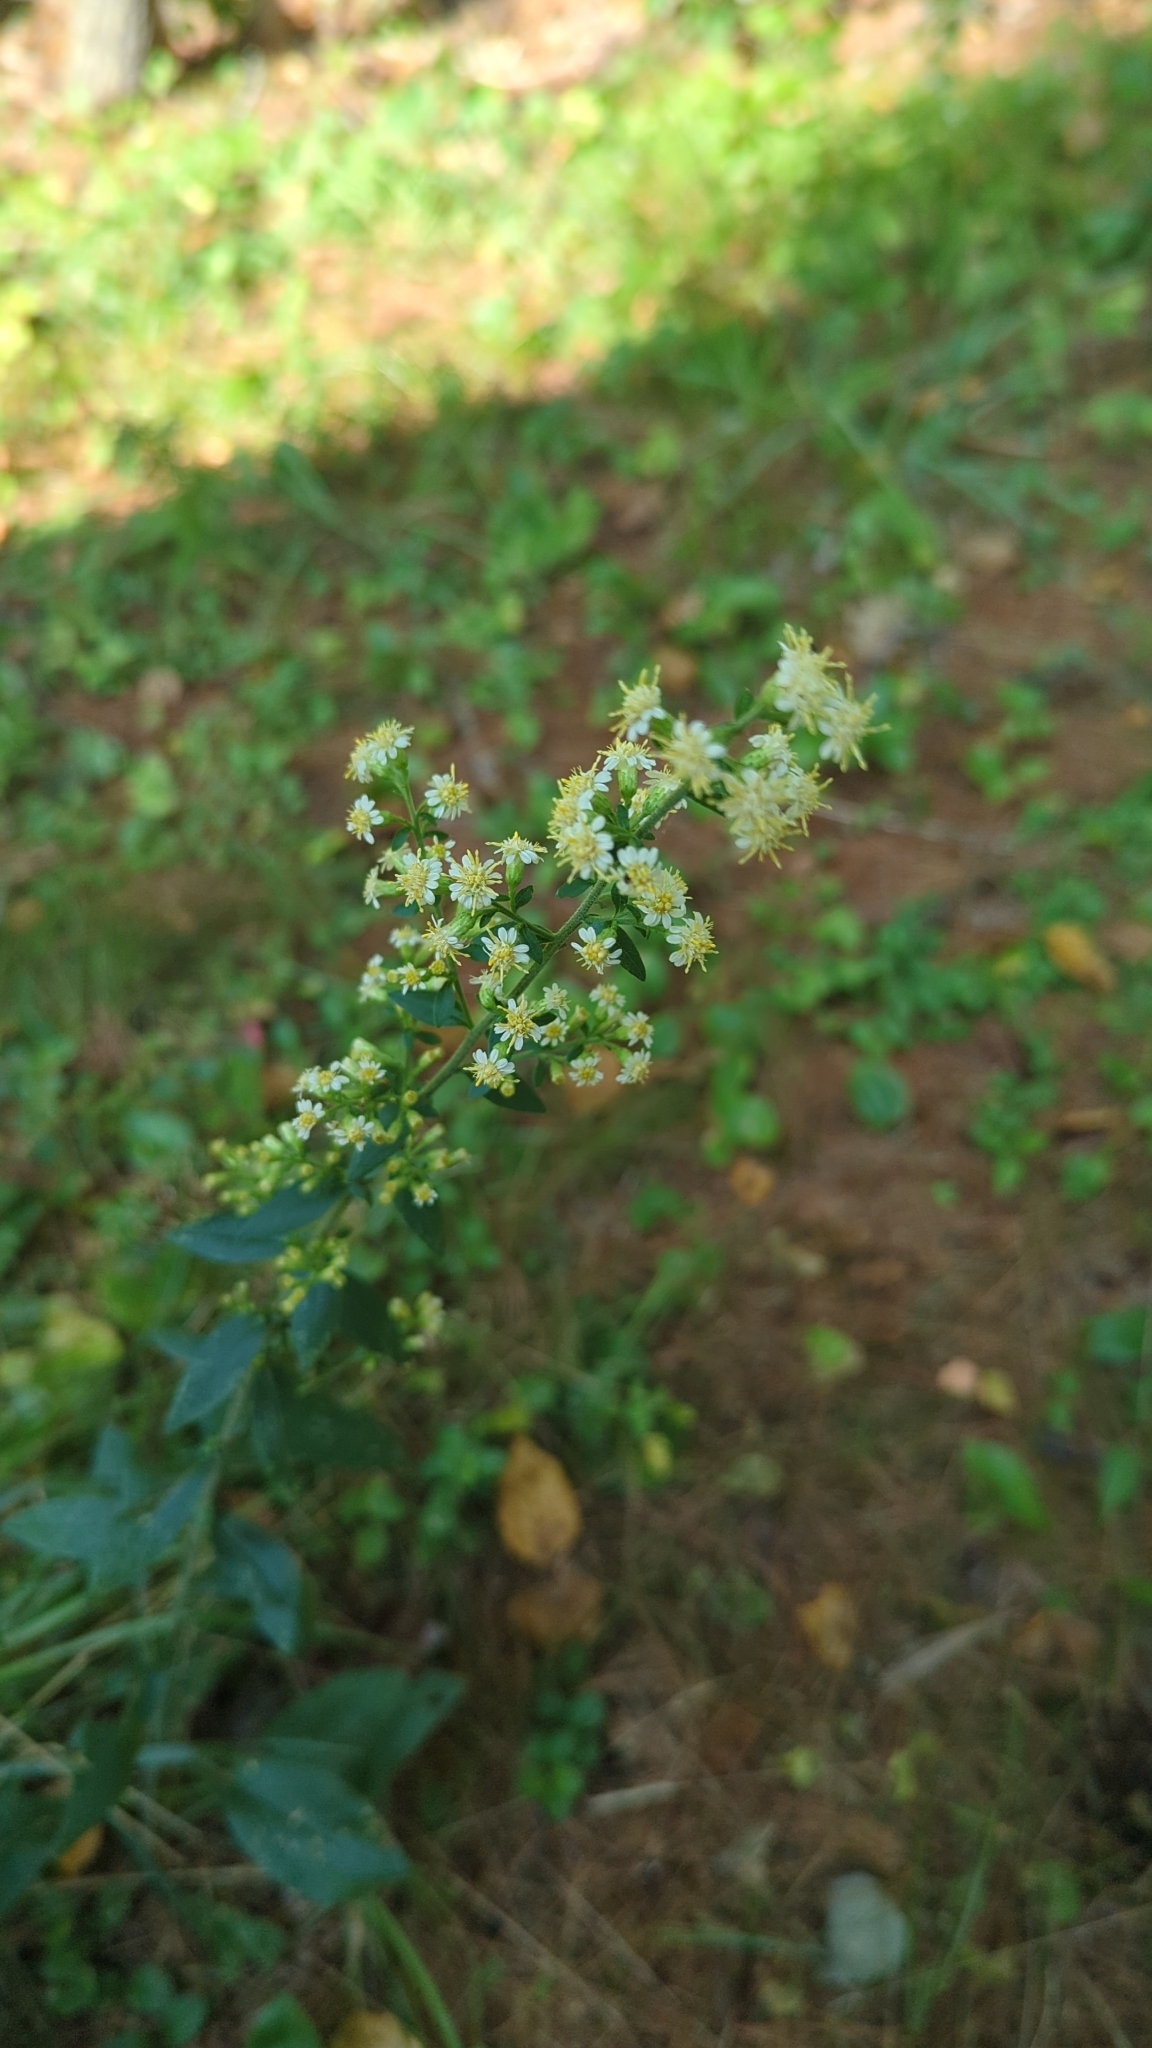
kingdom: Plantae
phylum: Tracheophyta
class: Magnoliopsida
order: Asterales
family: Asteraceae
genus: Solidago
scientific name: Solidago bicolor
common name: Silverrod
